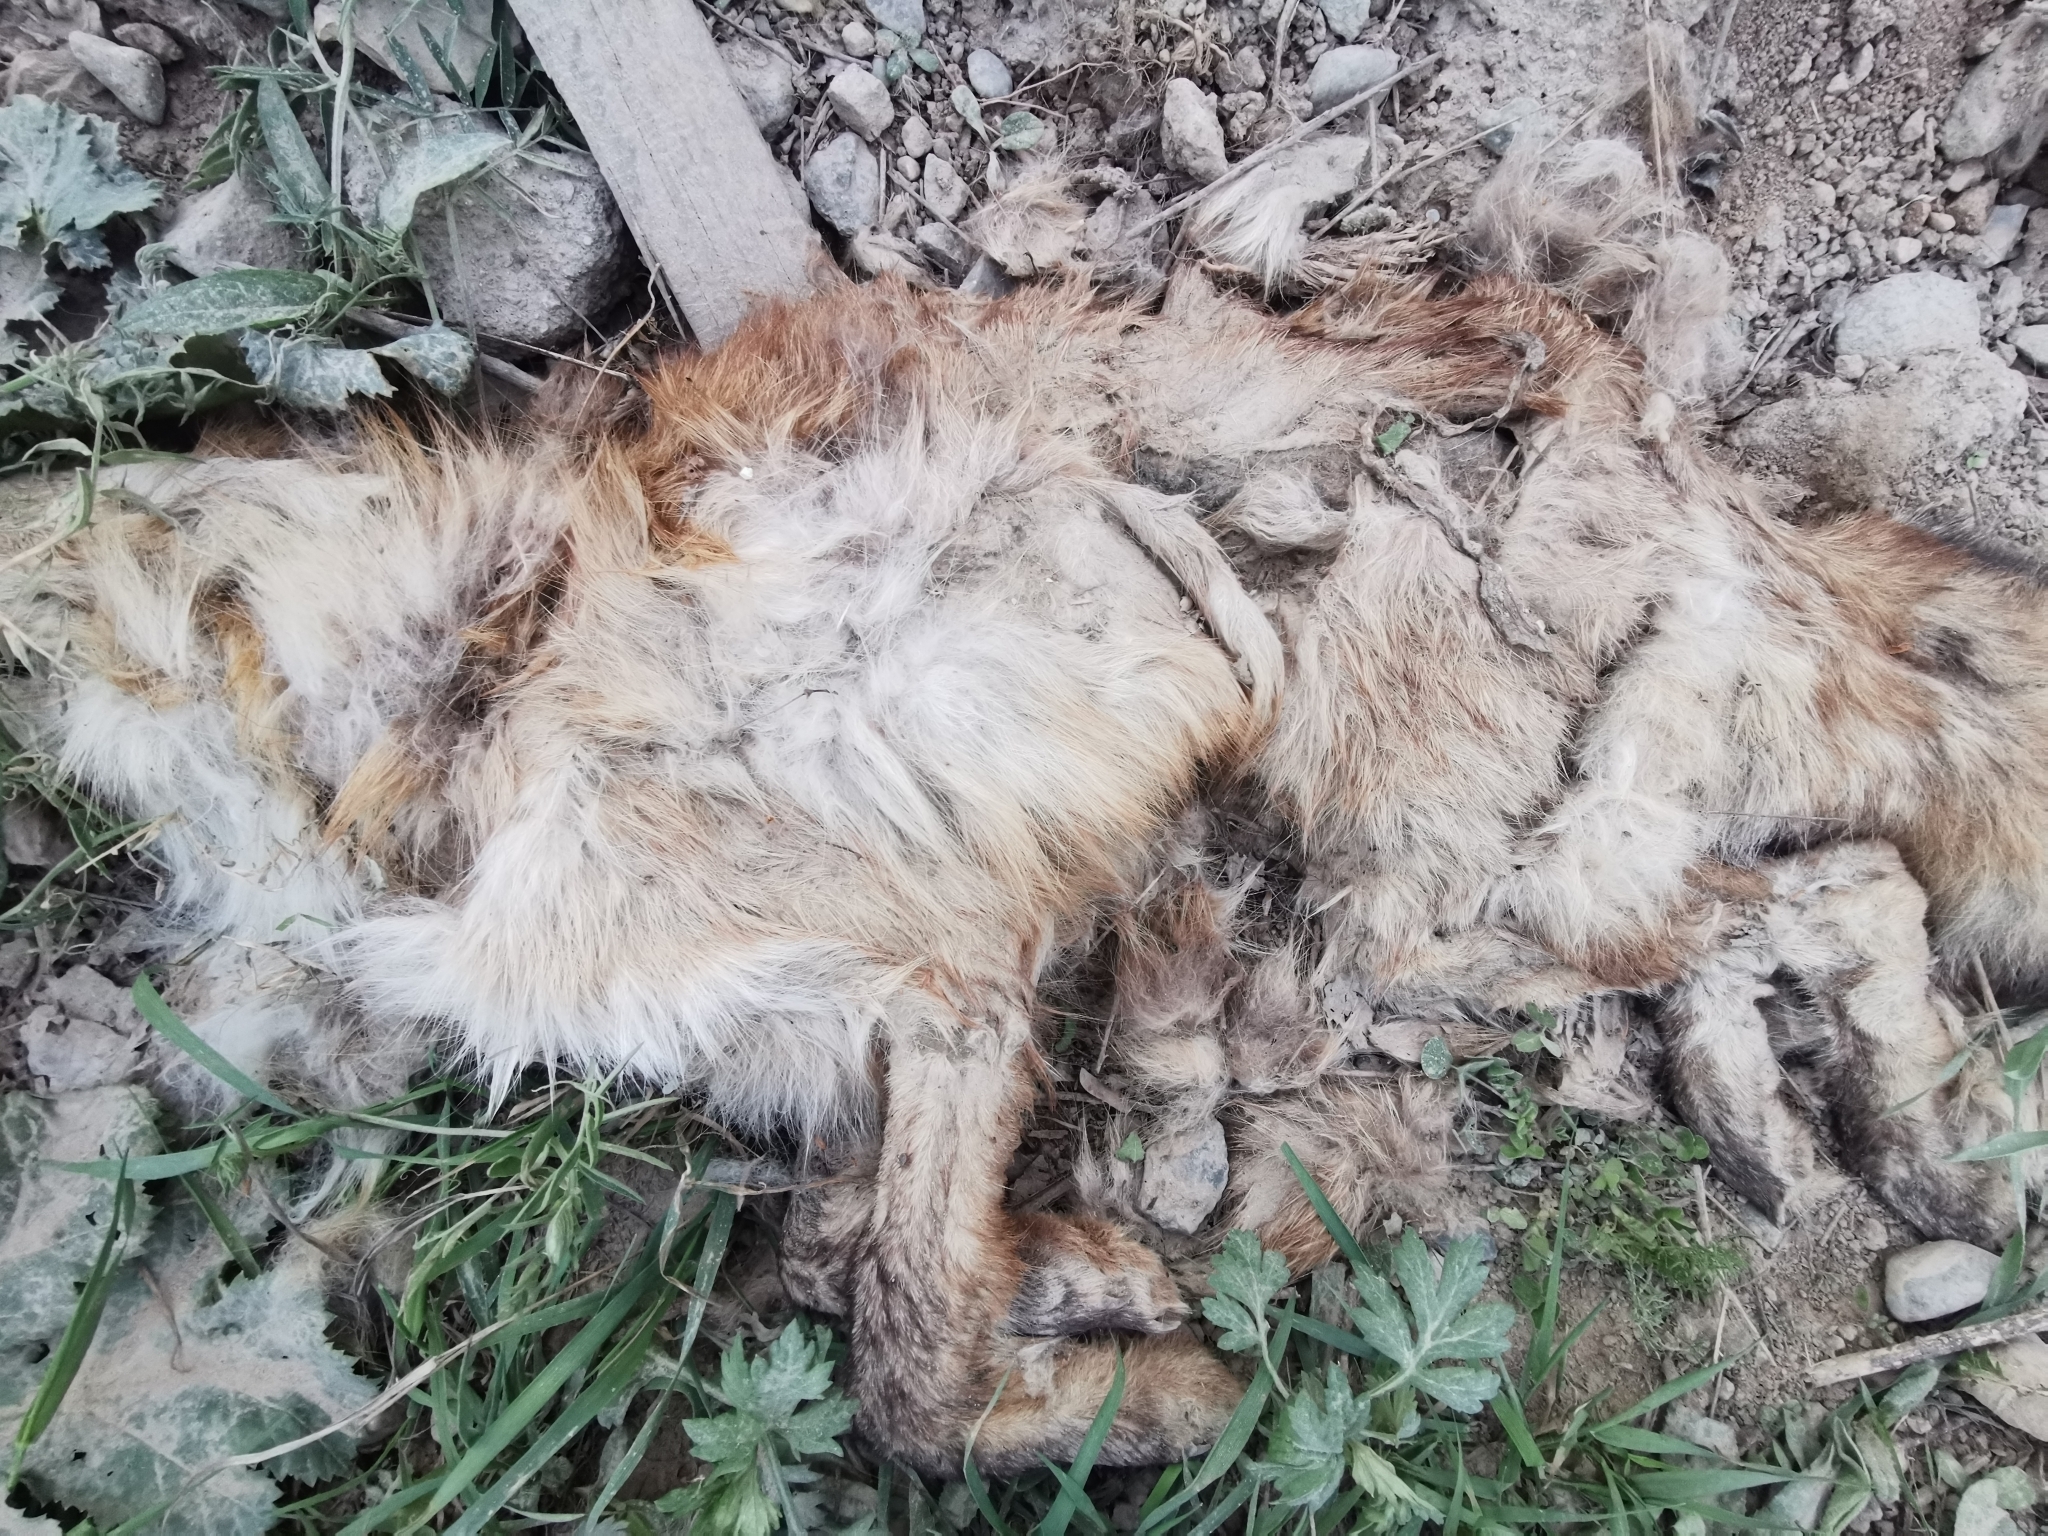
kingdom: Animalia
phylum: Chordata
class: Mammalia
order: Carnivora
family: Canidae
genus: Vulpes
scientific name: Vulpes vulpes
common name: Red fox
